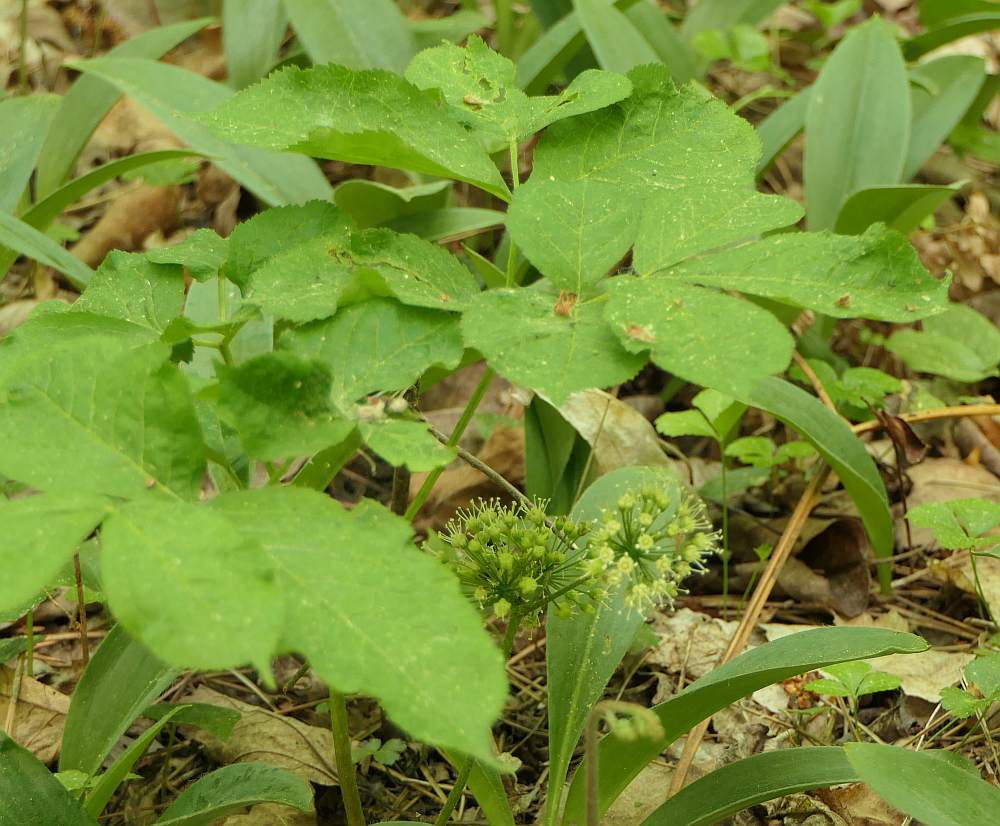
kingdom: Plantae
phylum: Tracheophyta
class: Magnoliopsida
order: Apiales
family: Araliaceae
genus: Aralia
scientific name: Aralia nudicaulis
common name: Wild sarsaparilla
